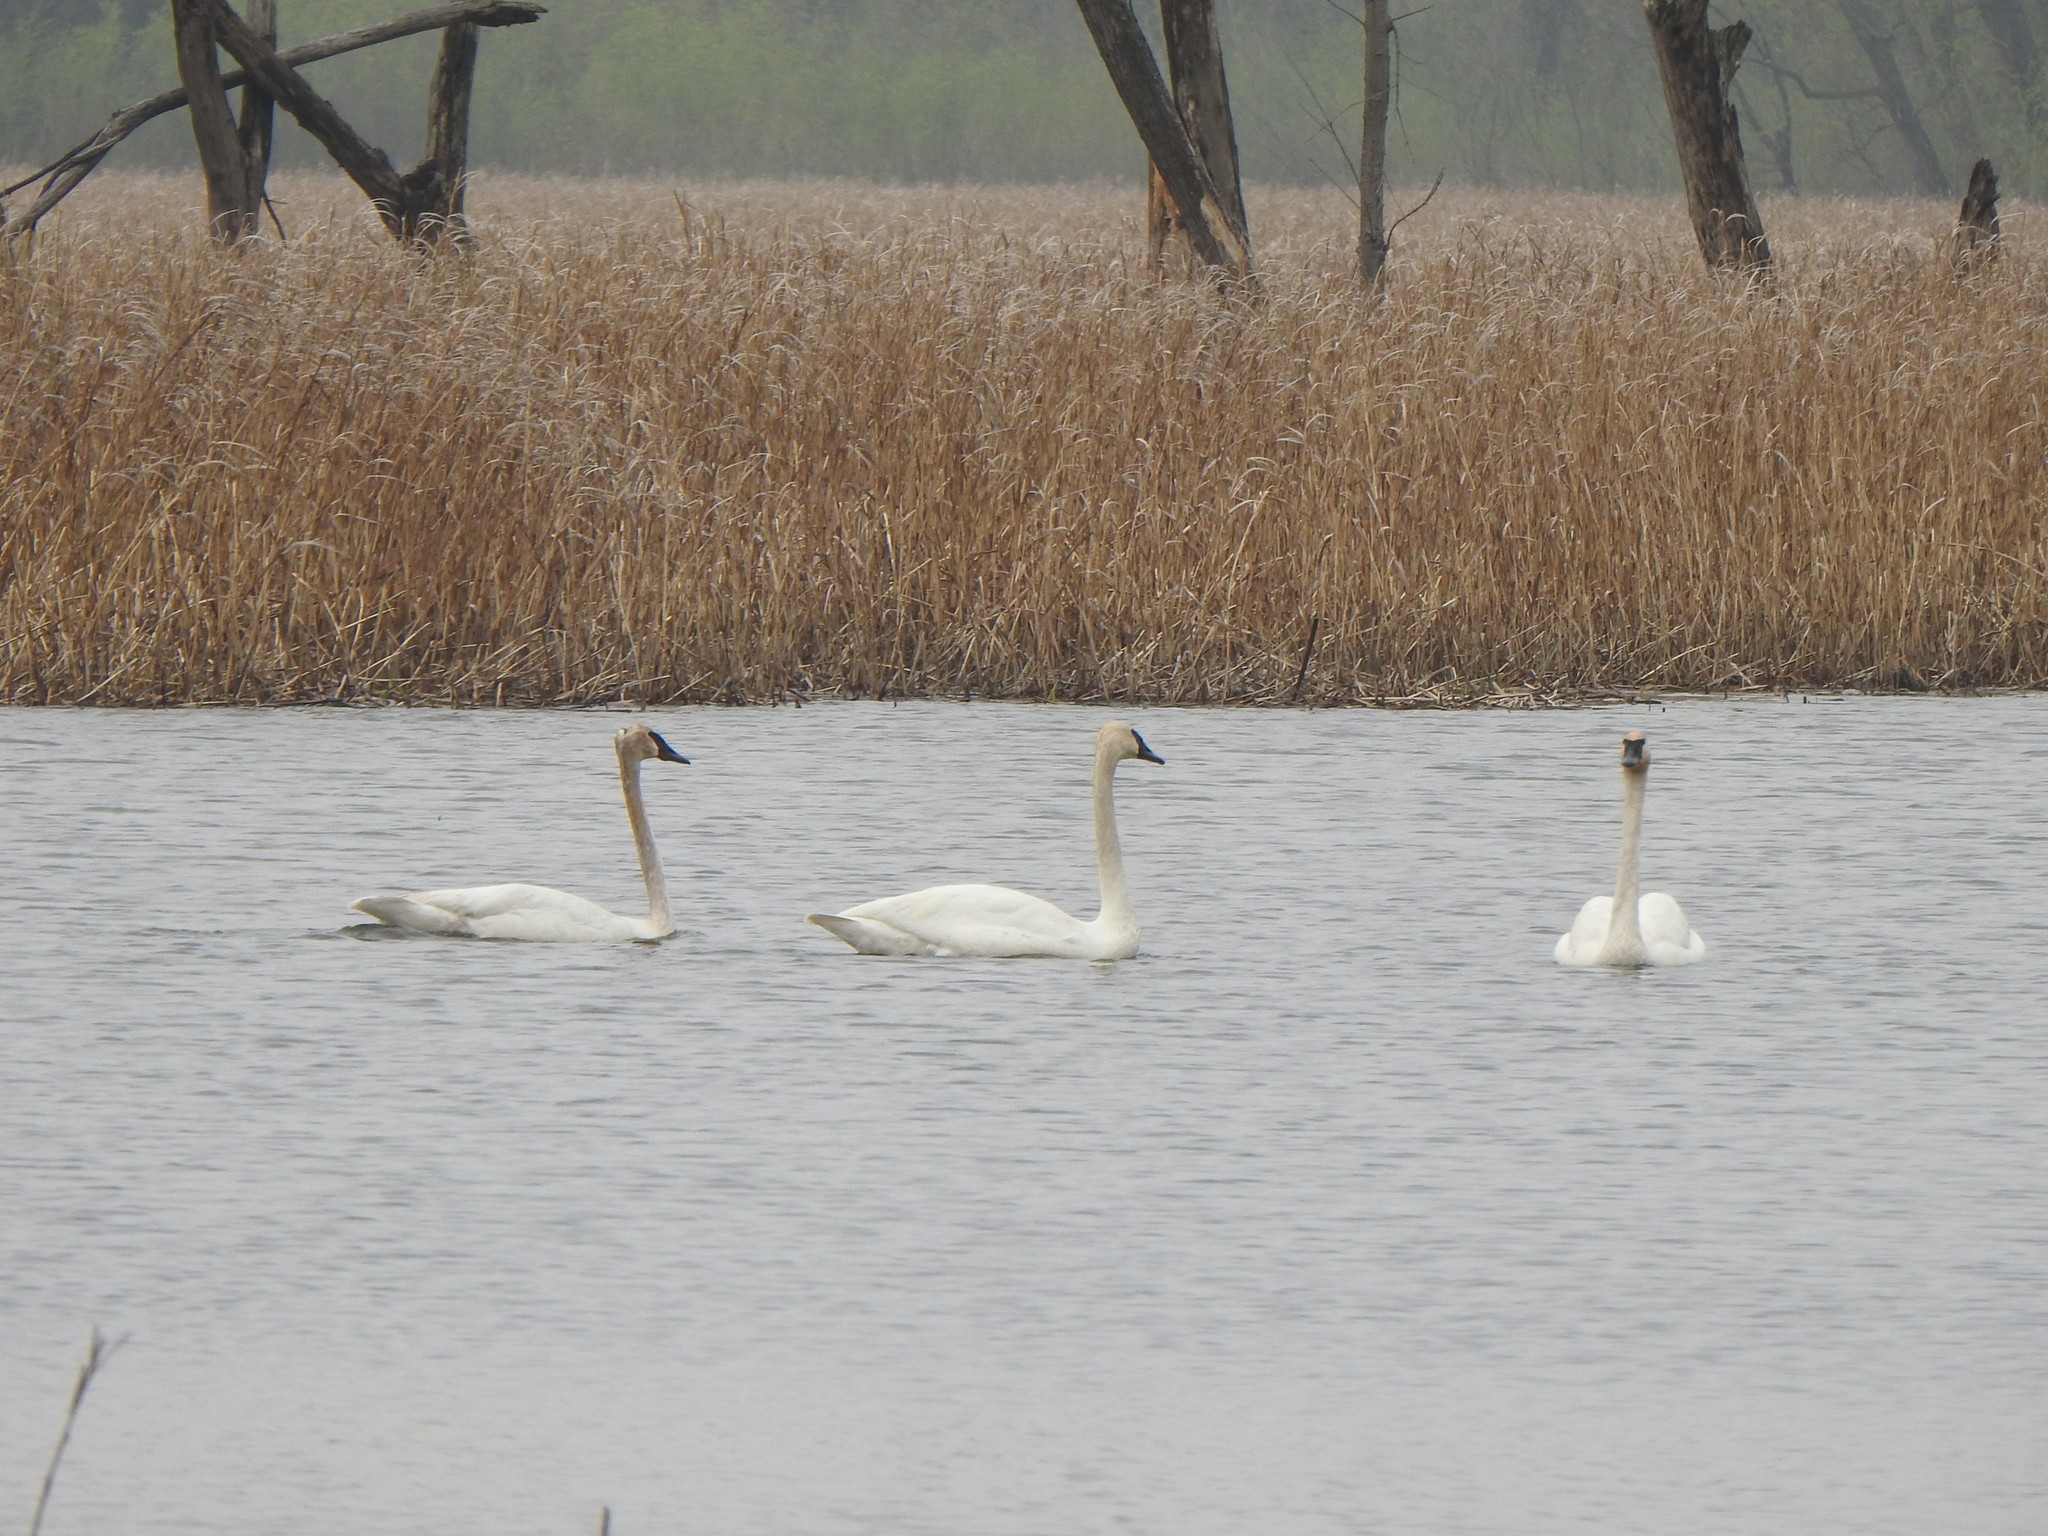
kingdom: Animalia
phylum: Chordata
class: Aves
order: Anseriformes
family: Anatidae
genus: Cygnus
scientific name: Cygnus buccinator
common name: Trumpeter swan
